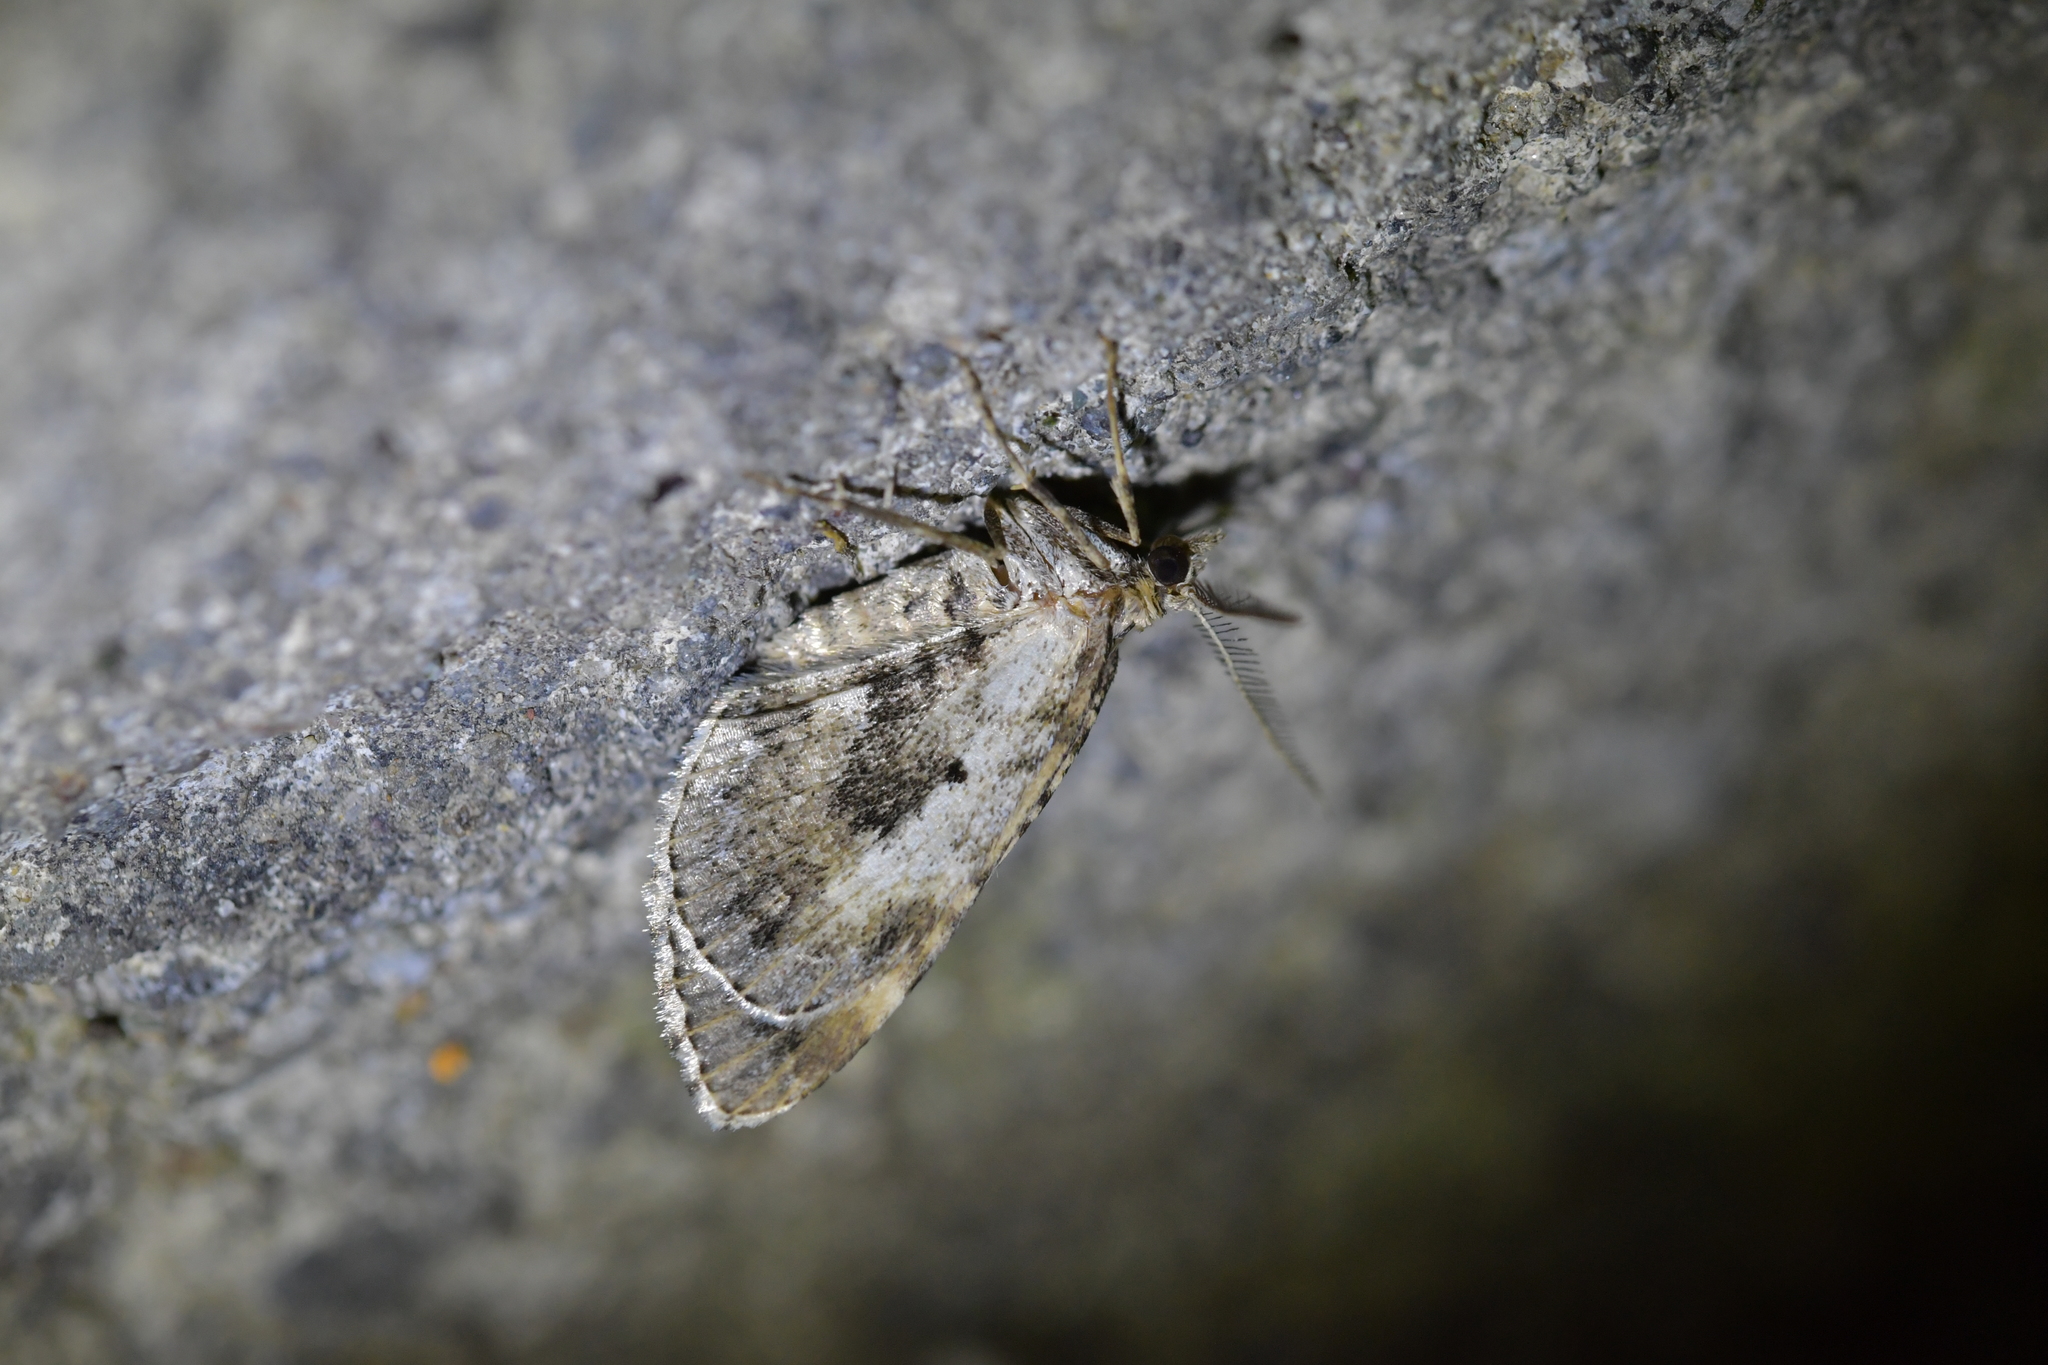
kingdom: Animalia
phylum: Arthropoda
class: Insecta
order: Lepidoptera
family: Geometridae
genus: Asaphodes
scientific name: Asaphodes aegrota
